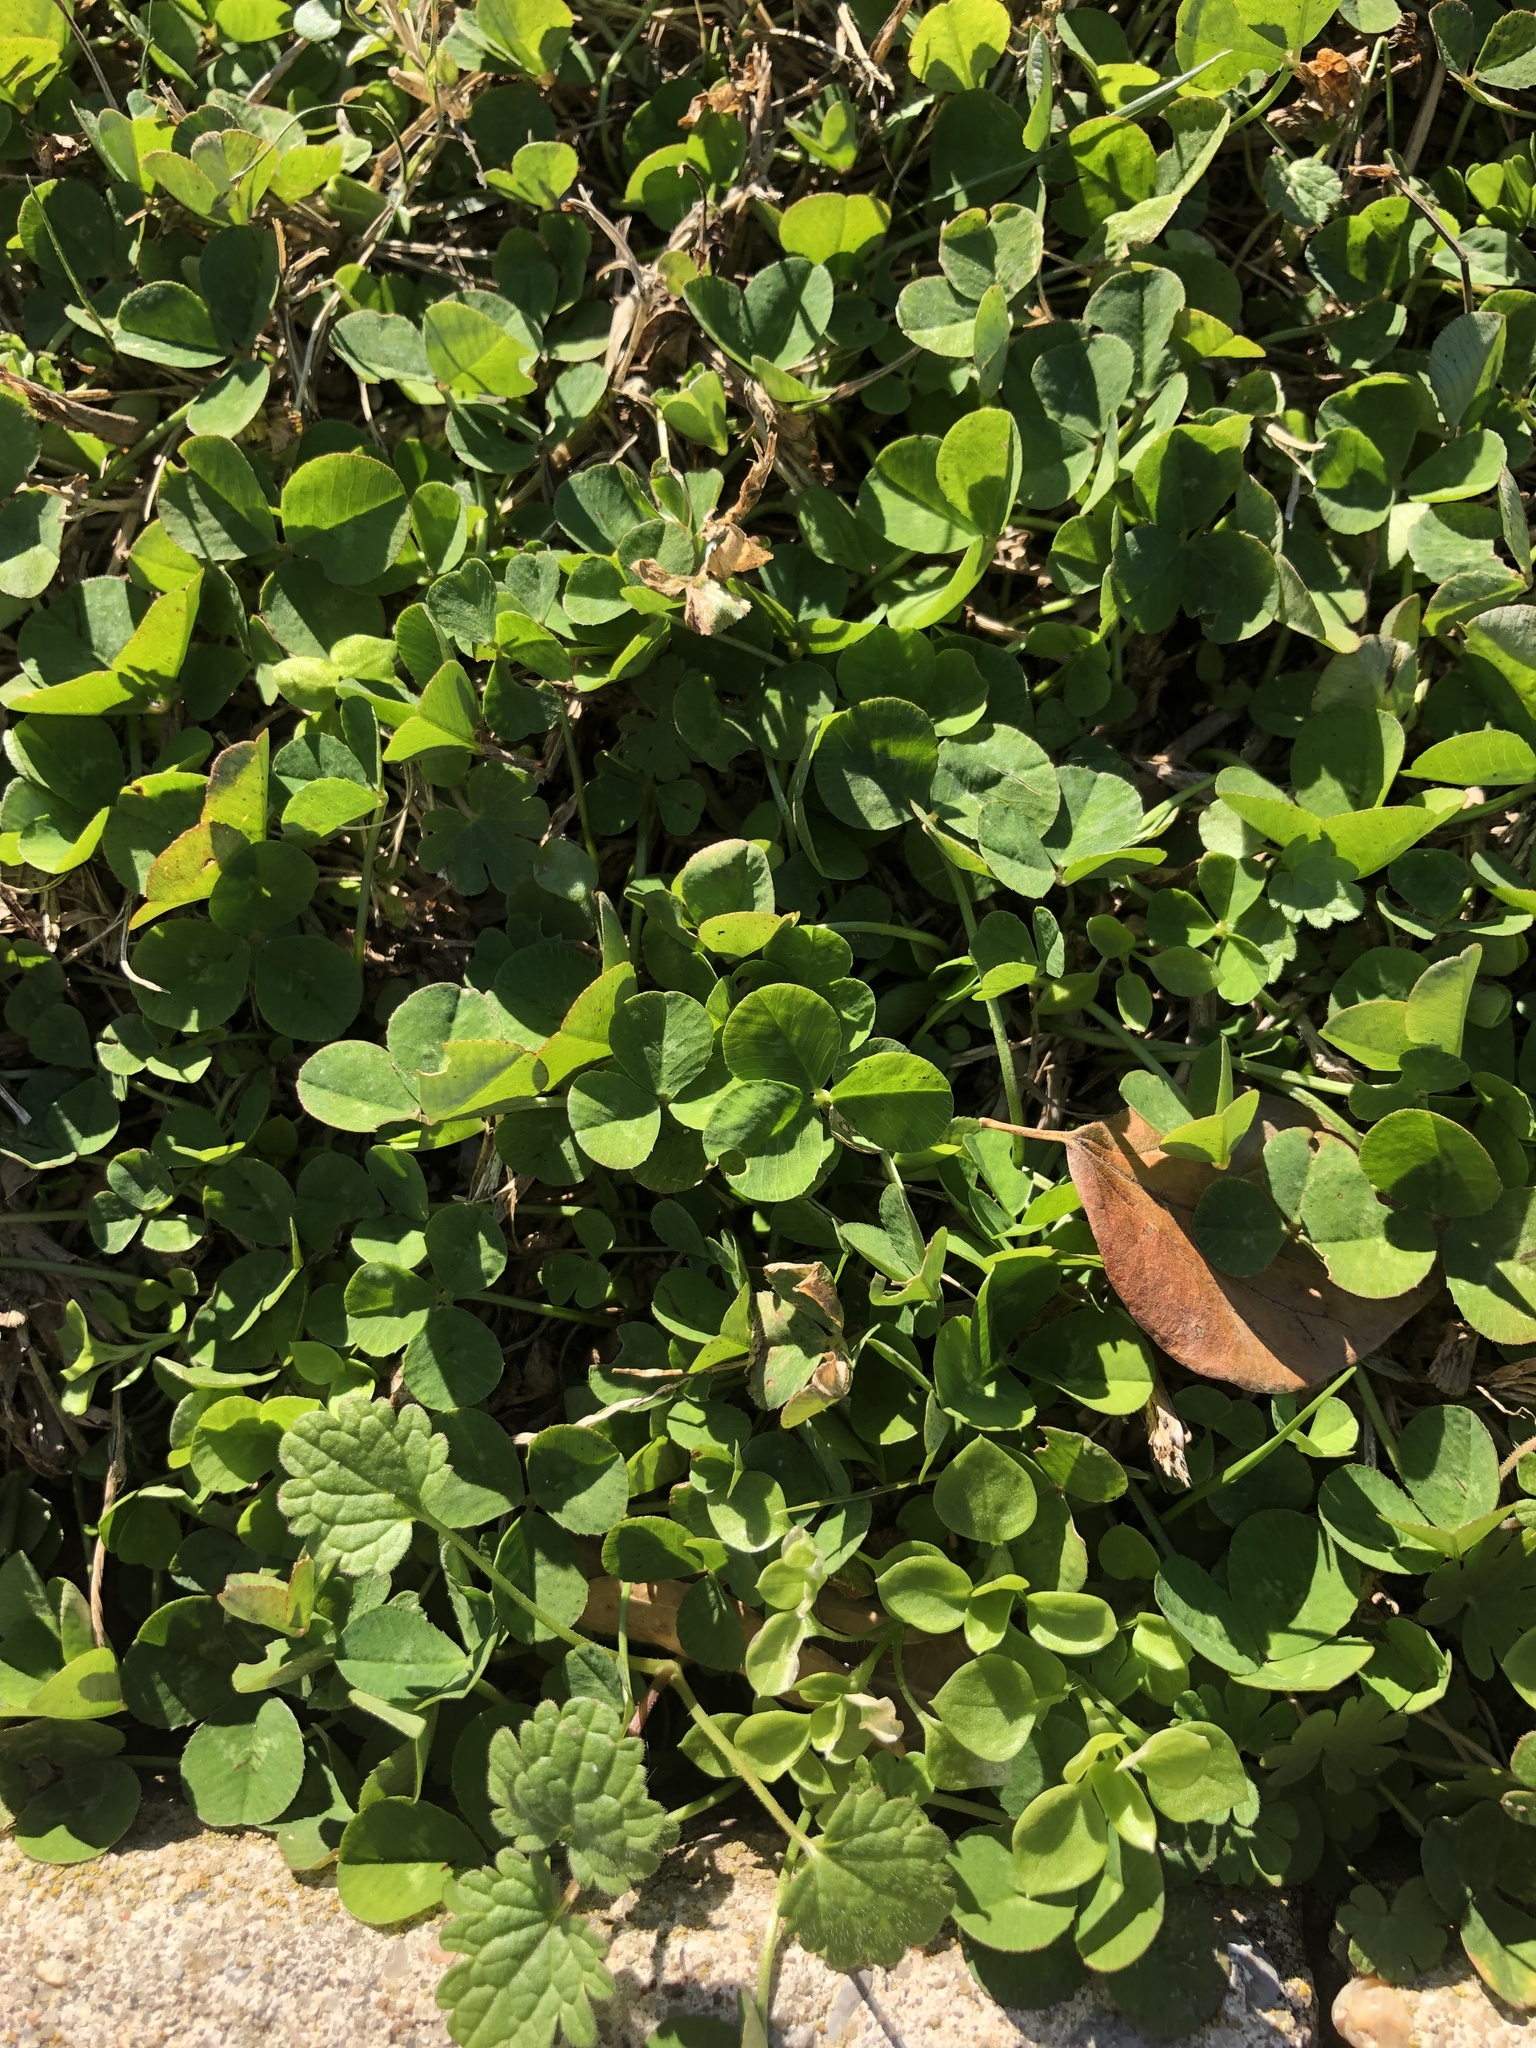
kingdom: Plantae
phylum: Tracheophyta
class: Magnoliopsida
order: Fabales
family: Fabaceae
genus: Trifolium
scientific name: Trifolium repens
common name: White clover
